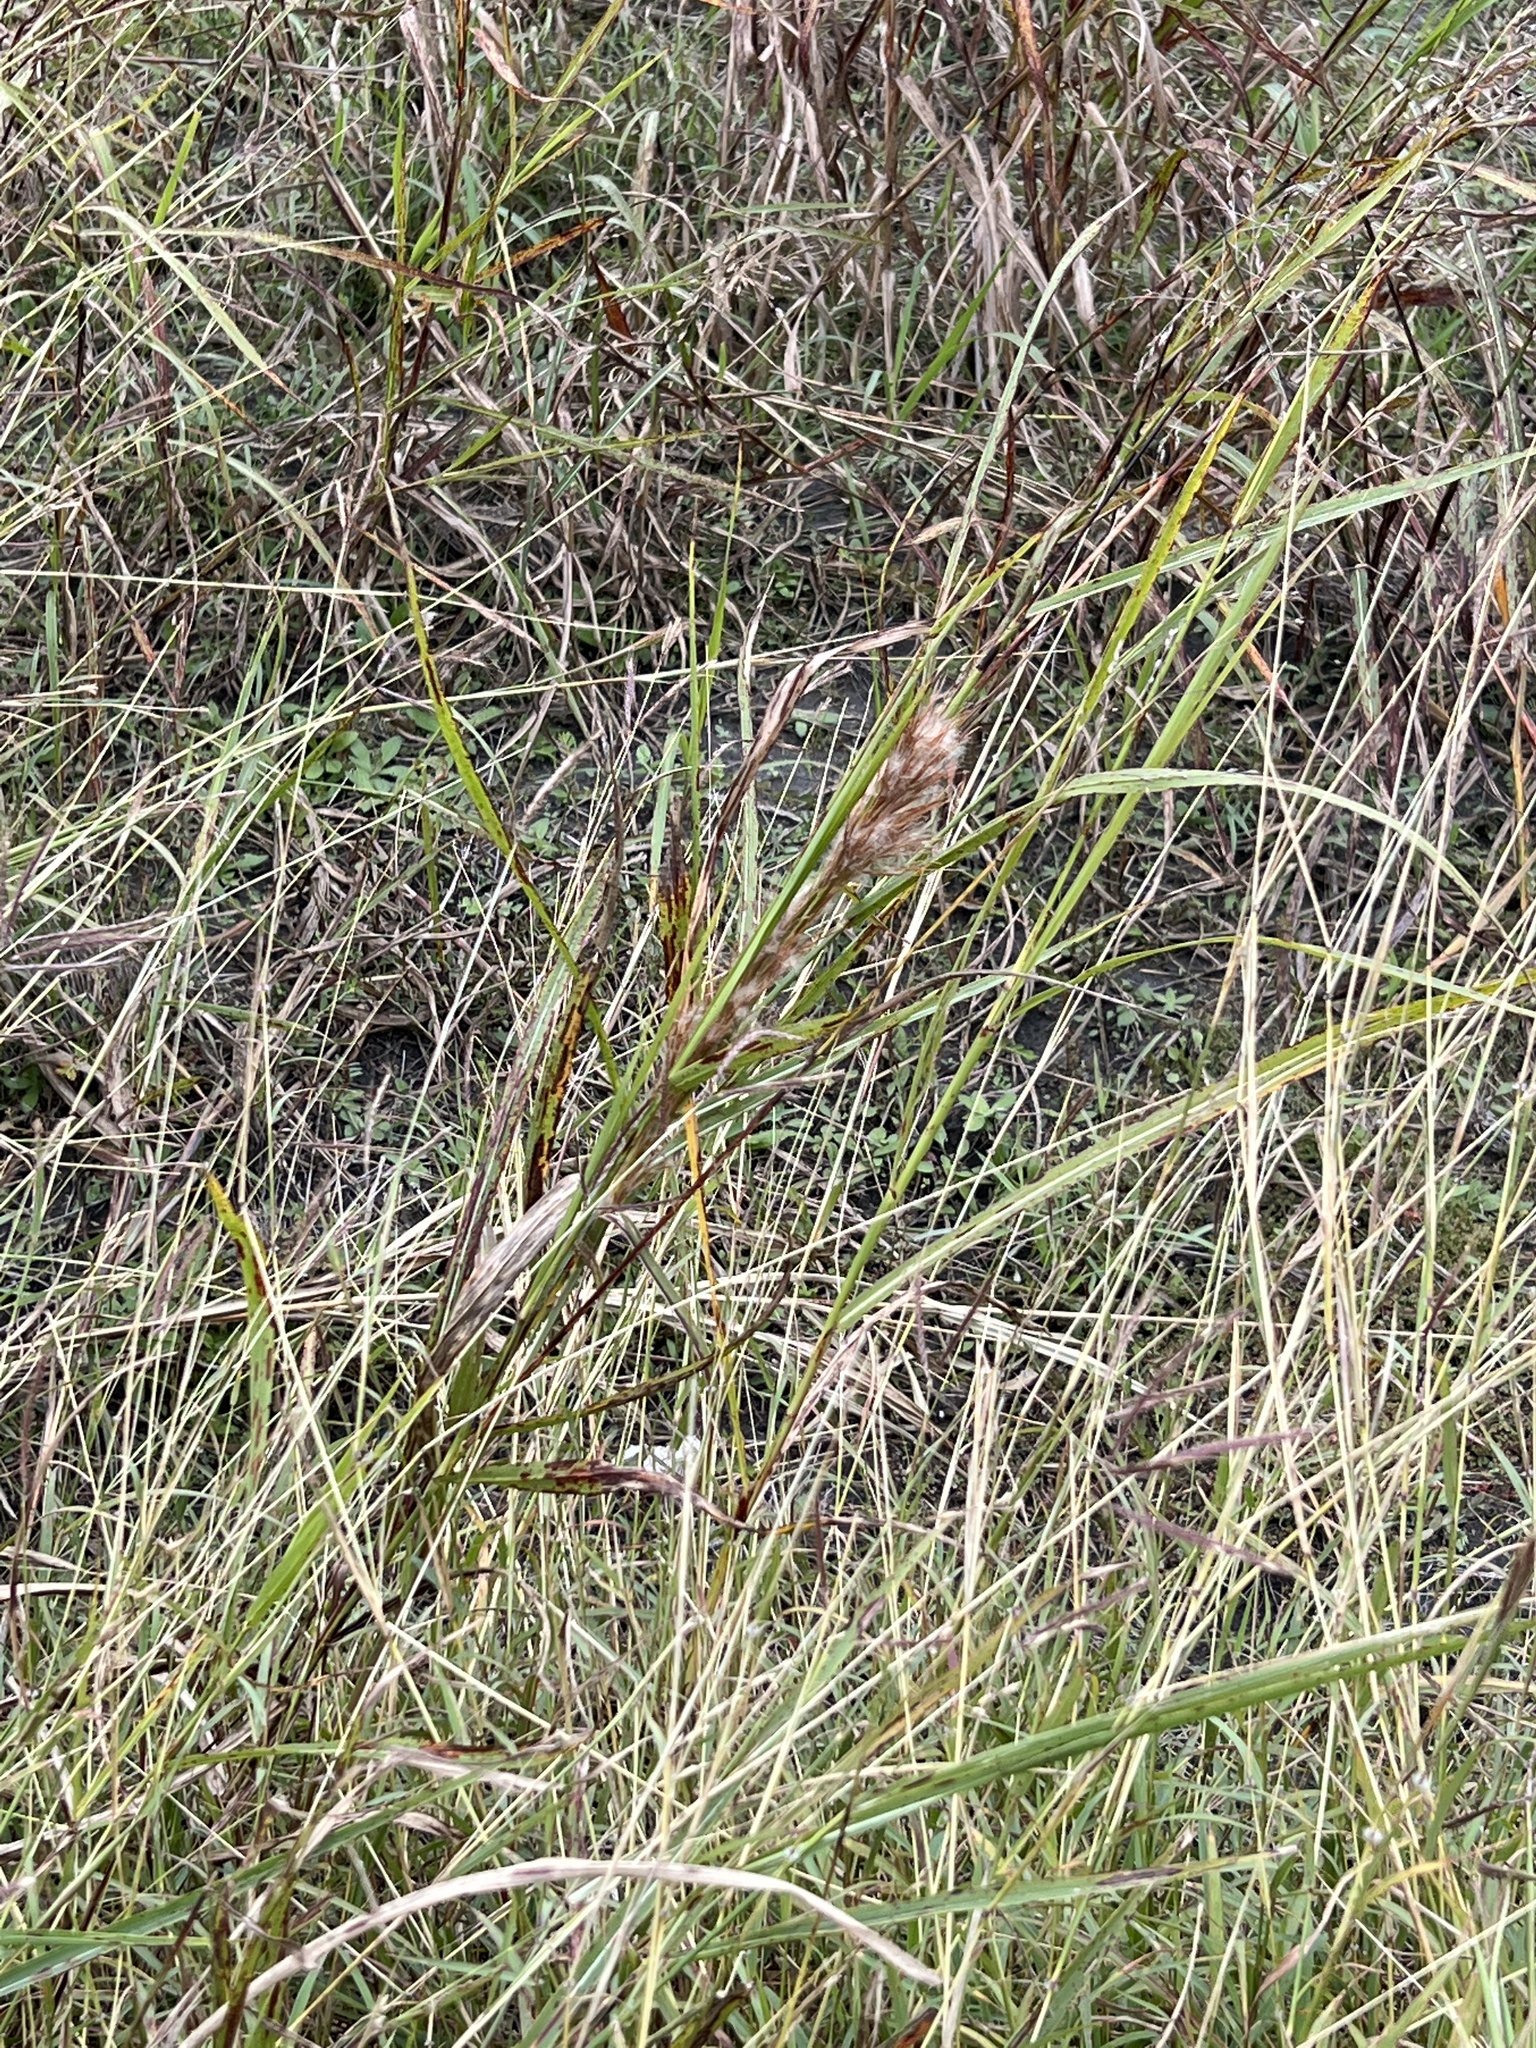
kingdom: Plantae
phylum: Tracheophyta
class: Liliopsida
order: Poales
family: Poaceae
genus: Andropogon
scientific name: Andropogon tenuispatheus
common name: Bushy bluestem
